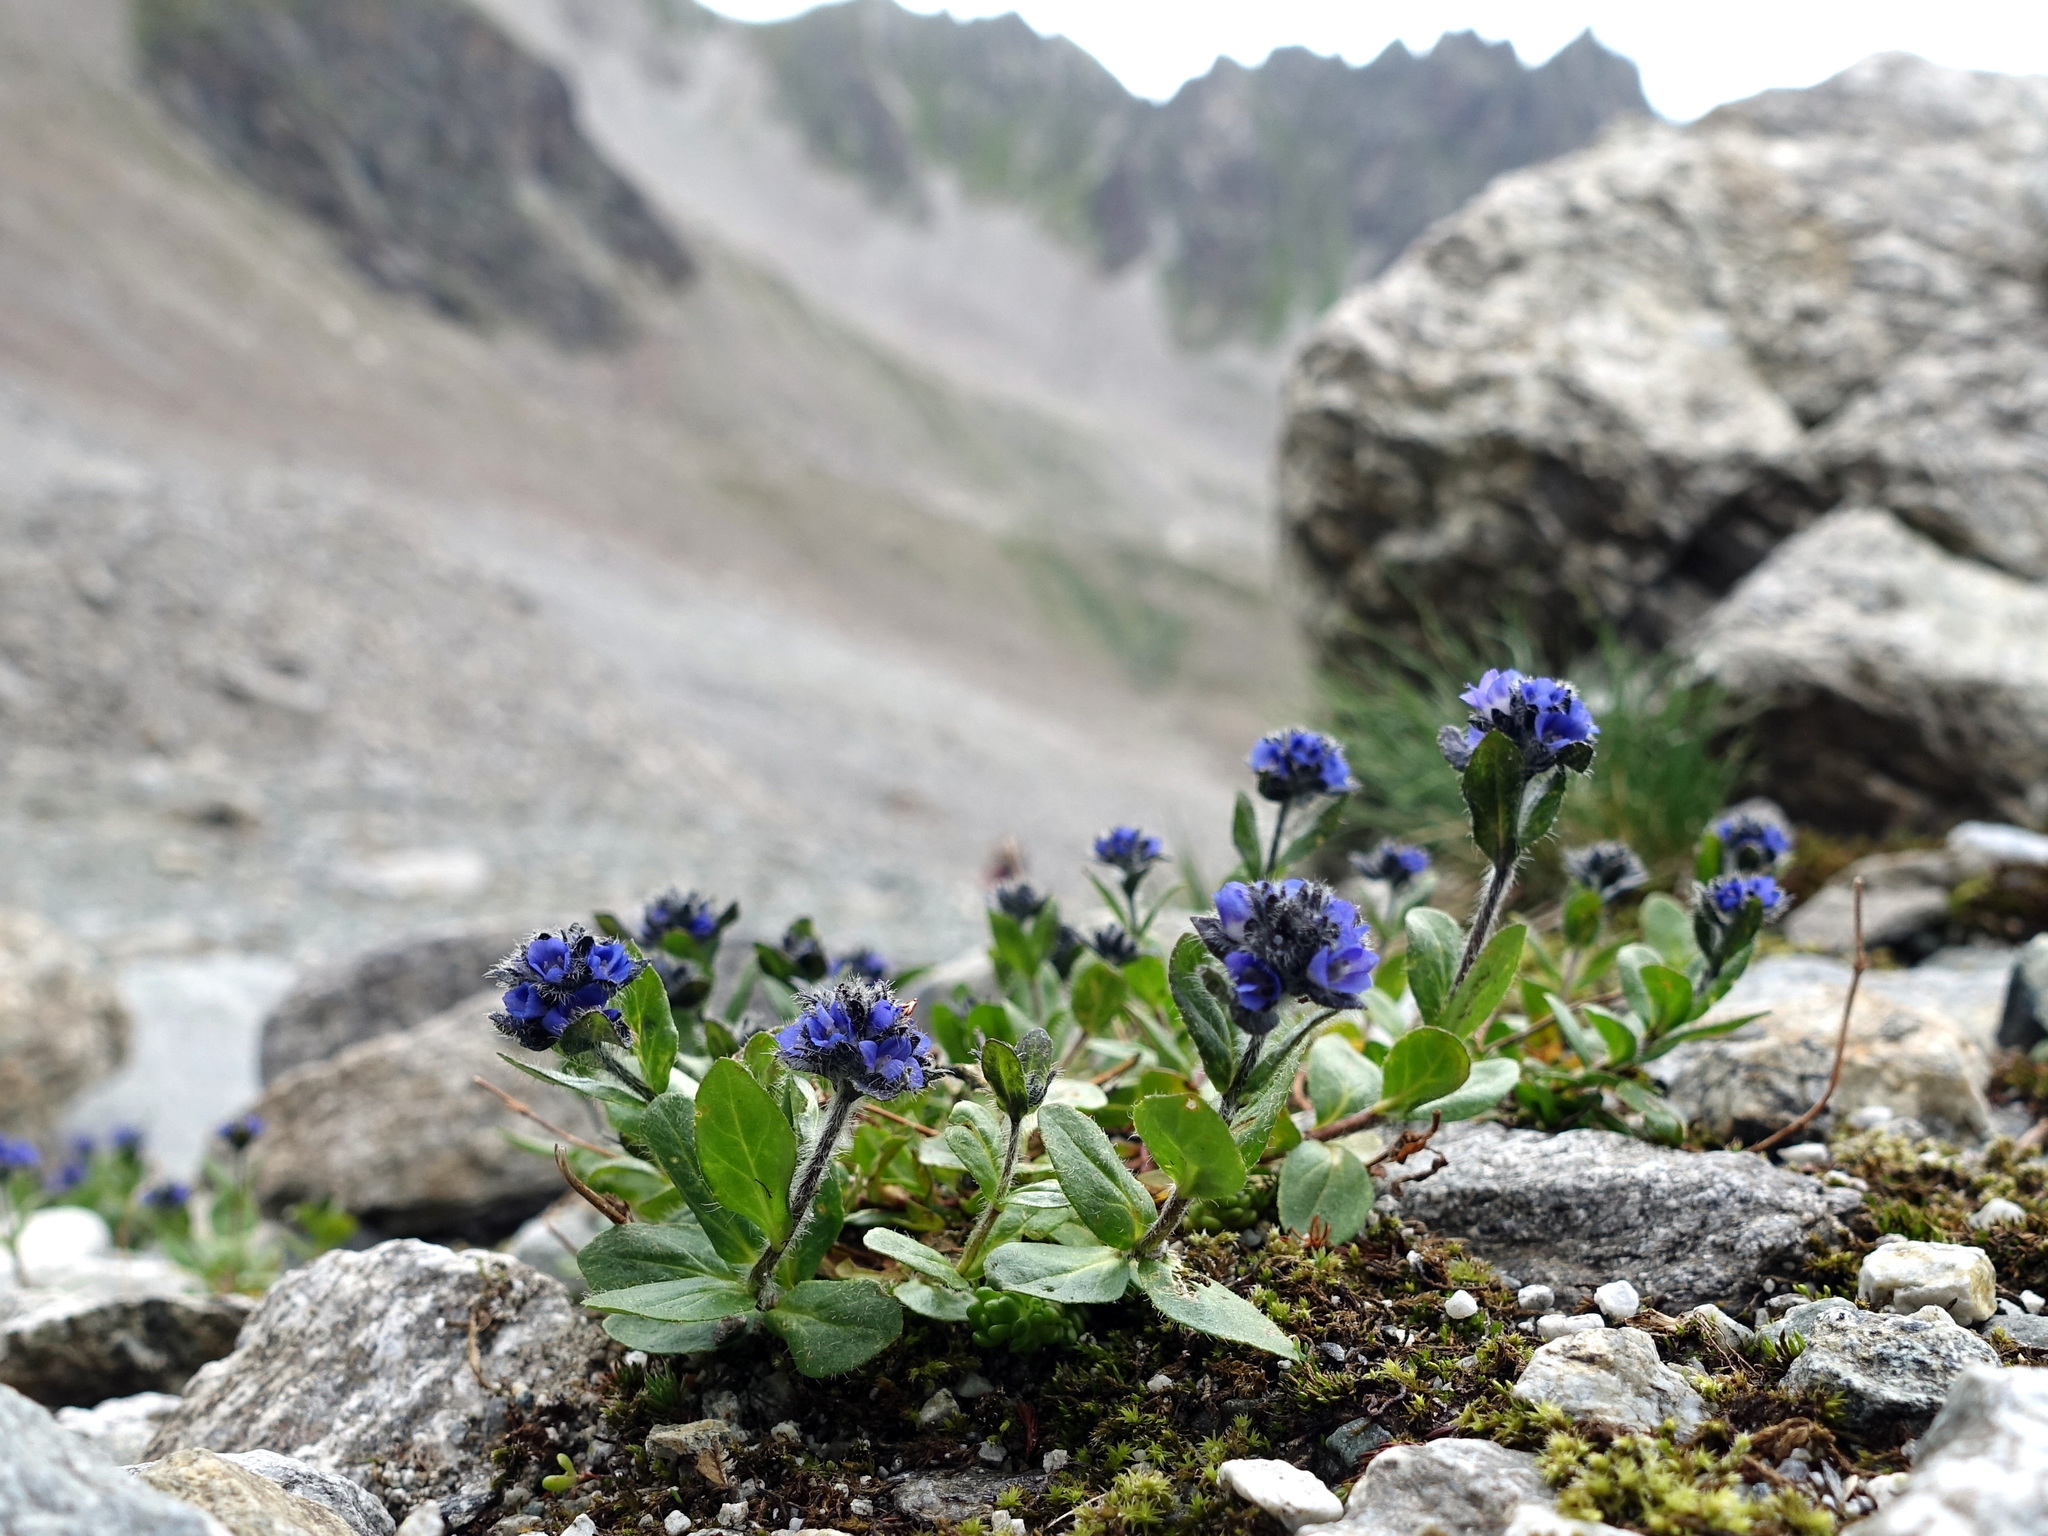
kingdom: Plantae
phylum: Tracheophyta
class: Magnoliopsida
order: Lamiales
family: Plantaginaceae
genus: Veronica
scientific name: Veronica alpina
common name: Alpine speedwell
